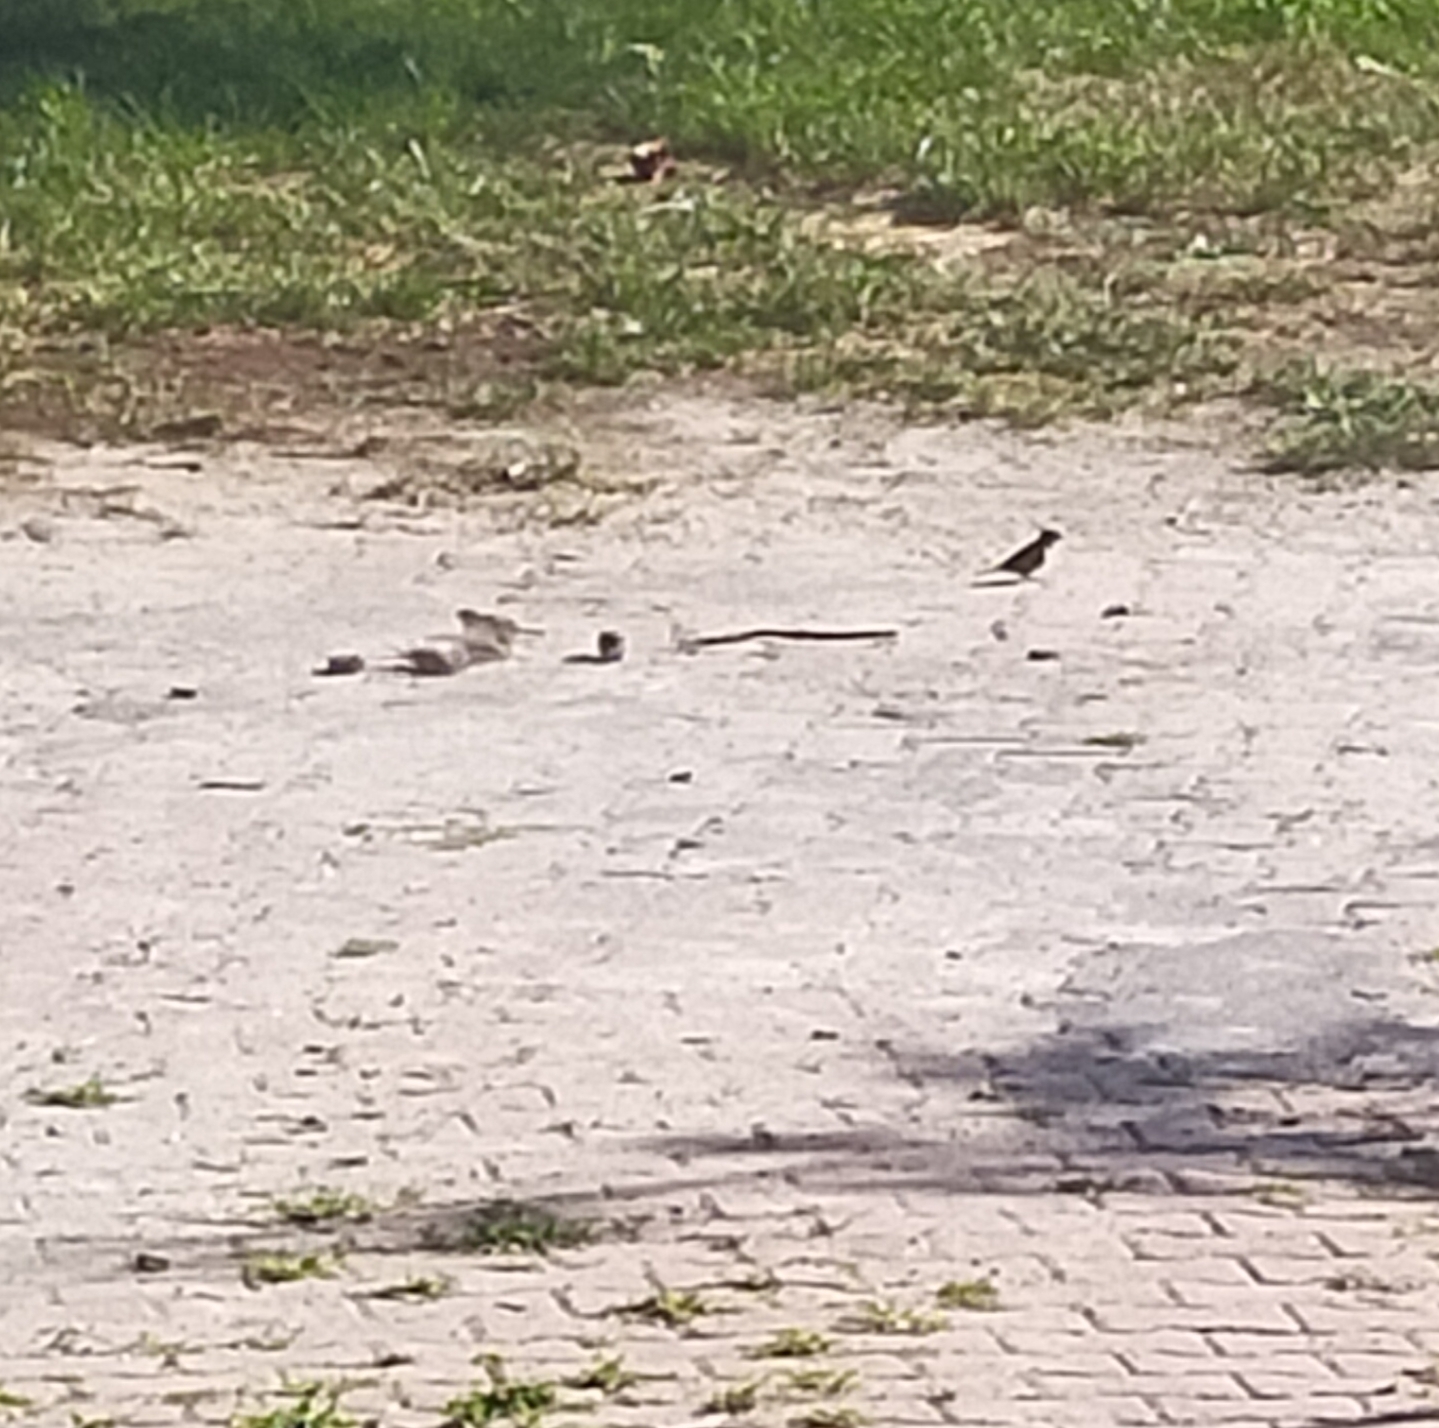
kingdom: Animalia
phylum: Chordata
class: Aves
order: Passeriformes
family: Passeridae
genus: Passer
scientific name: Passer domesticus
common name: House sparrow
